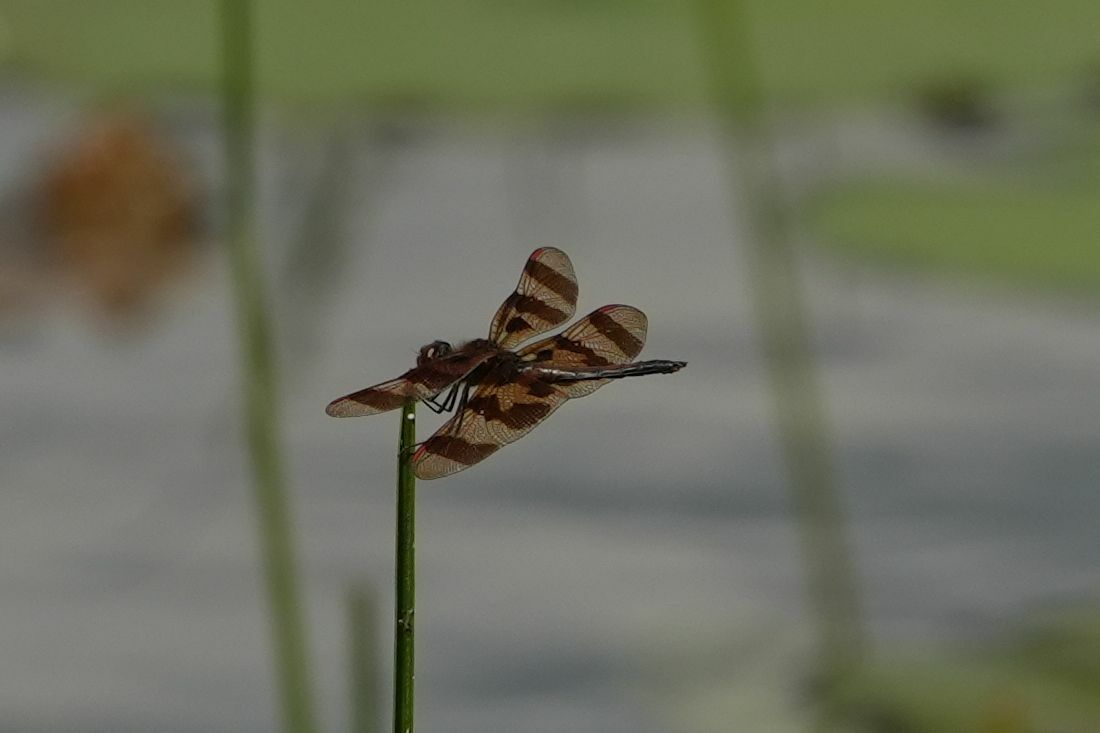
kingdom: Animalia
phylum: Arthropoda
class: Insecta
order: Odonata
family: Libellulidae
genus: Celithemis
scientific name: Celithemis eponina
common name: Halloween pennant
